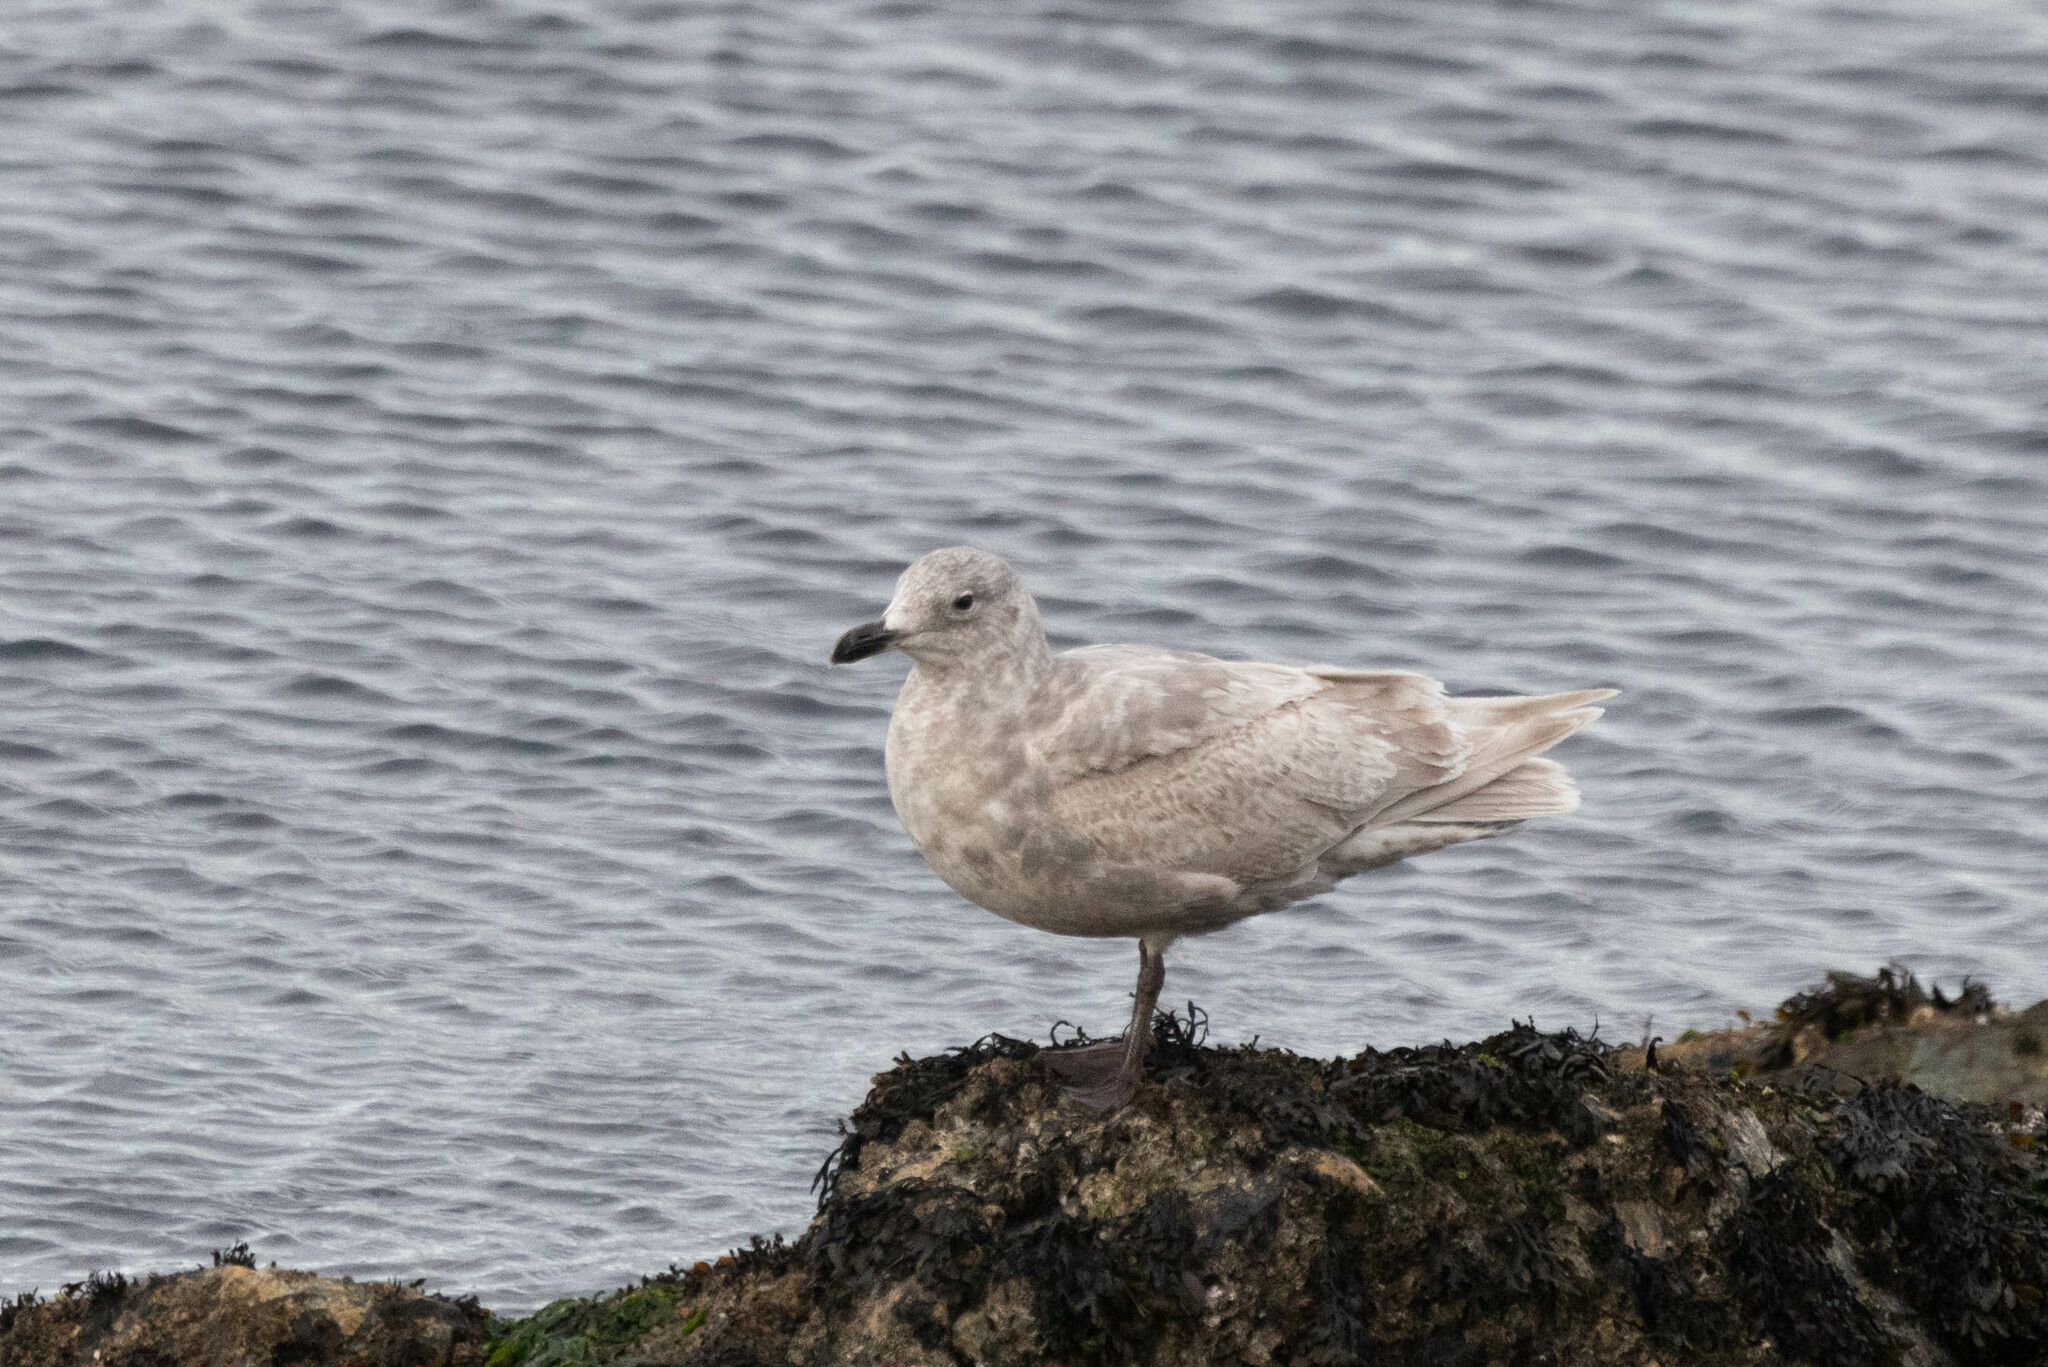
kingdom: Animalia
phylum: Chordata
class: Aves
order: Charadriiformes
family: Laridae
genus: Larus
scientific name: Larus glaucescens
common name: Glaucous-winged gull
